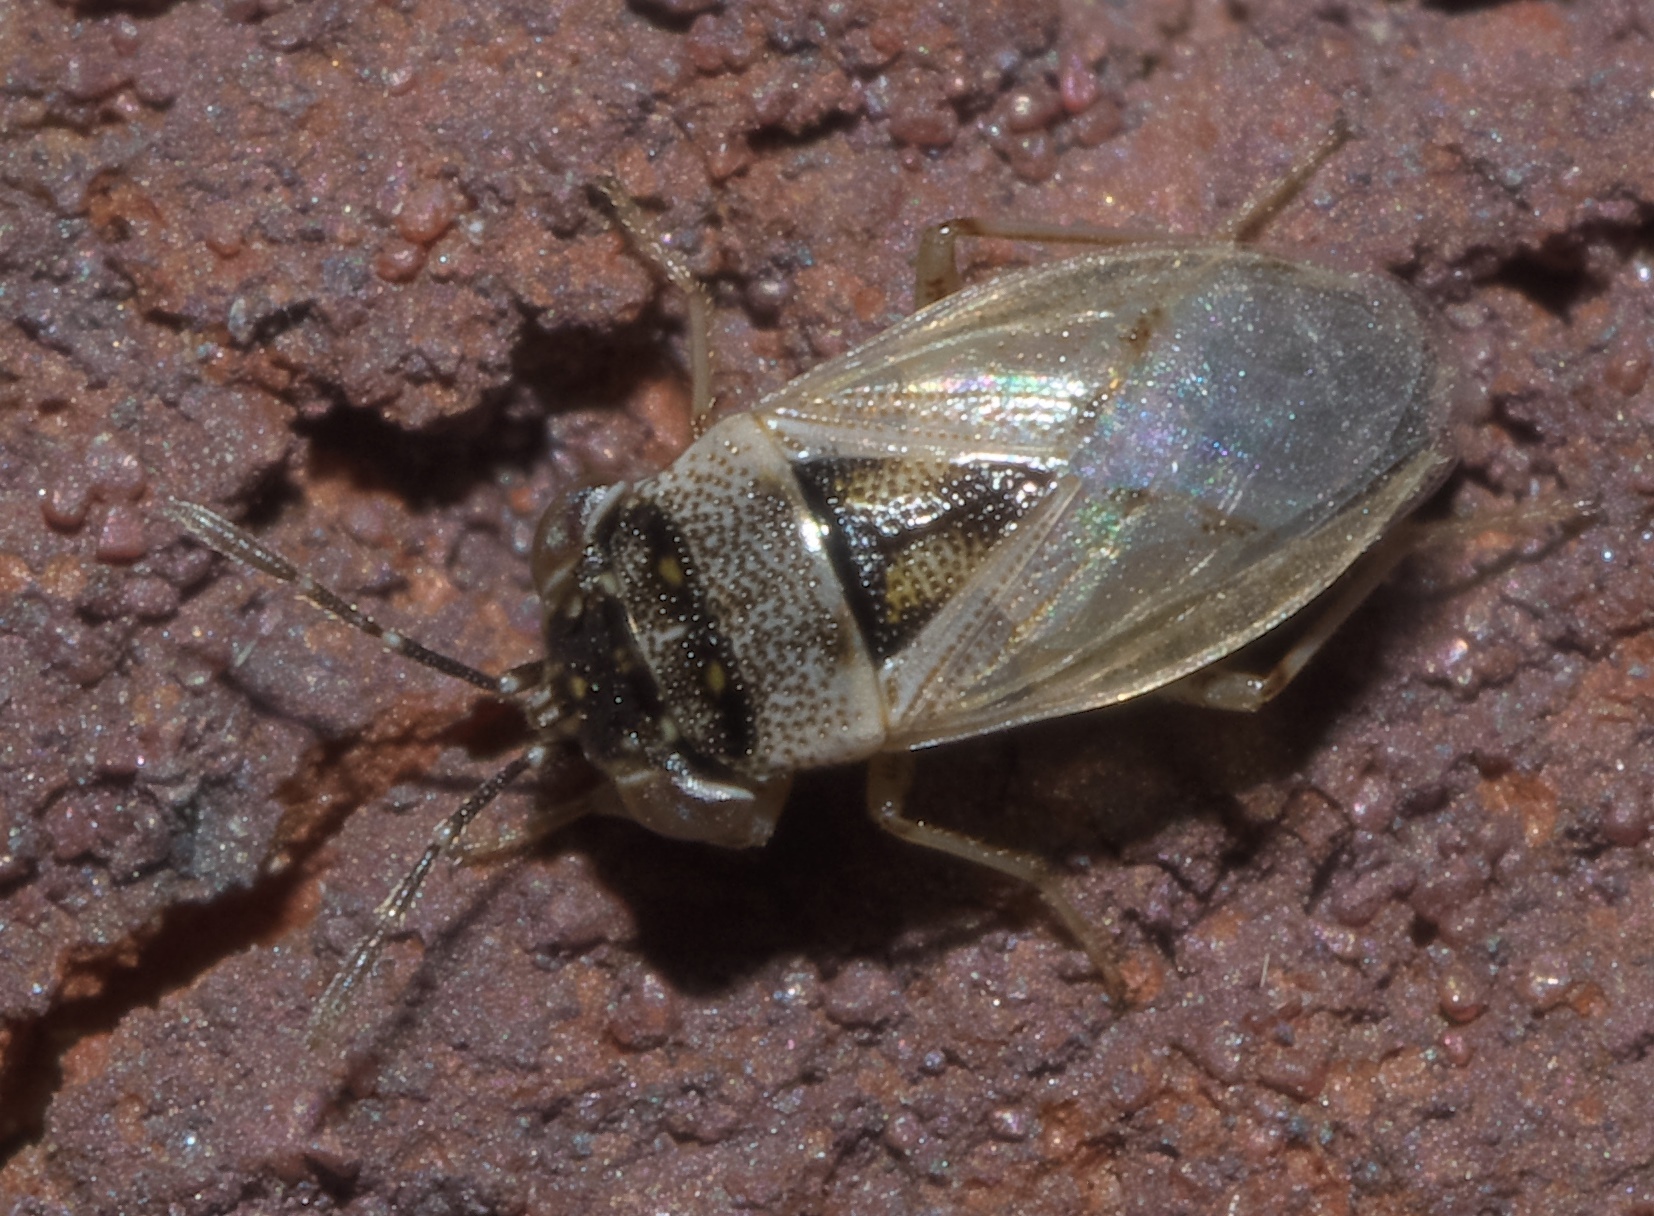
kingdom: Animalia
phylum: Arthropoda
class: Insecta
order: Hemiptera
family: Geocoridae
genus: Geocoris
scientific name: Geocoris pallens
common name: Big-eyed bug
